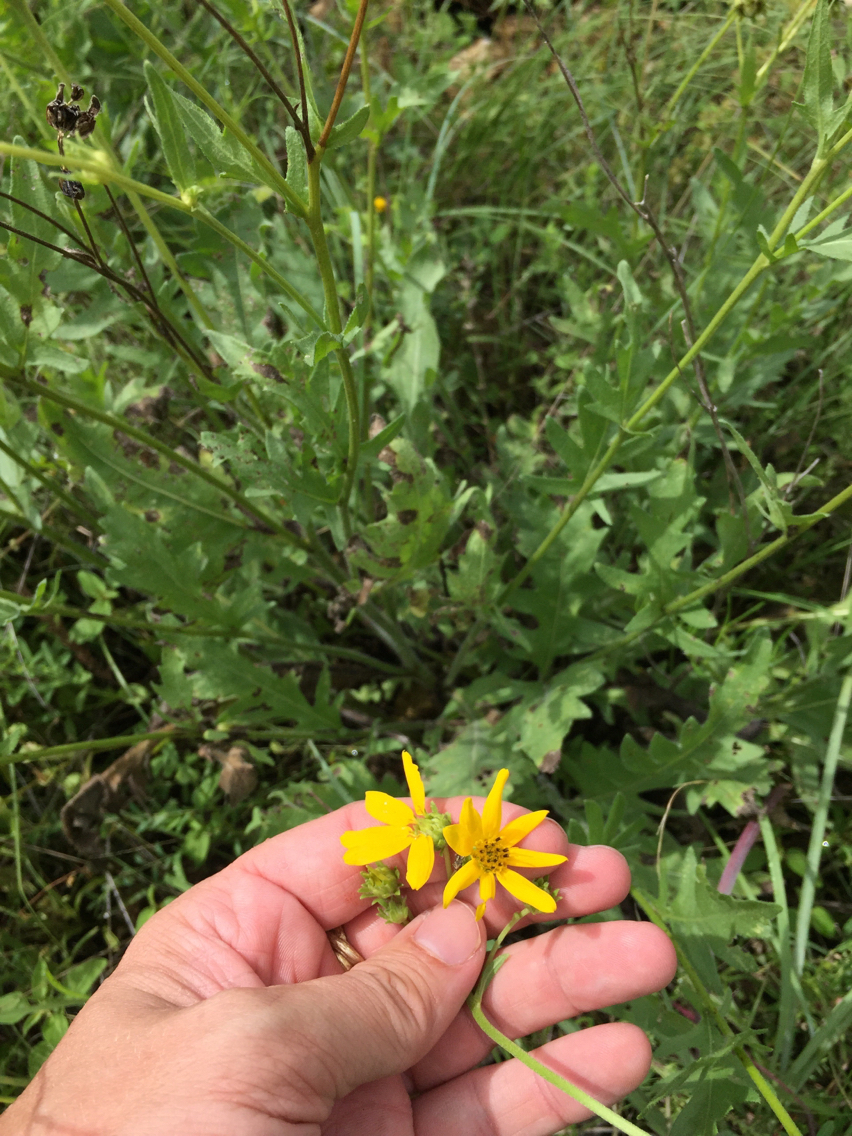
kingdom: Plantae
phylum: Tracheophyta
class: Magnoliopsida
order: Asterales
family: Asteraceae
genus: Engelmannia
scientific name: Engelmannia peristenia
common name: Engelmann's daisy
